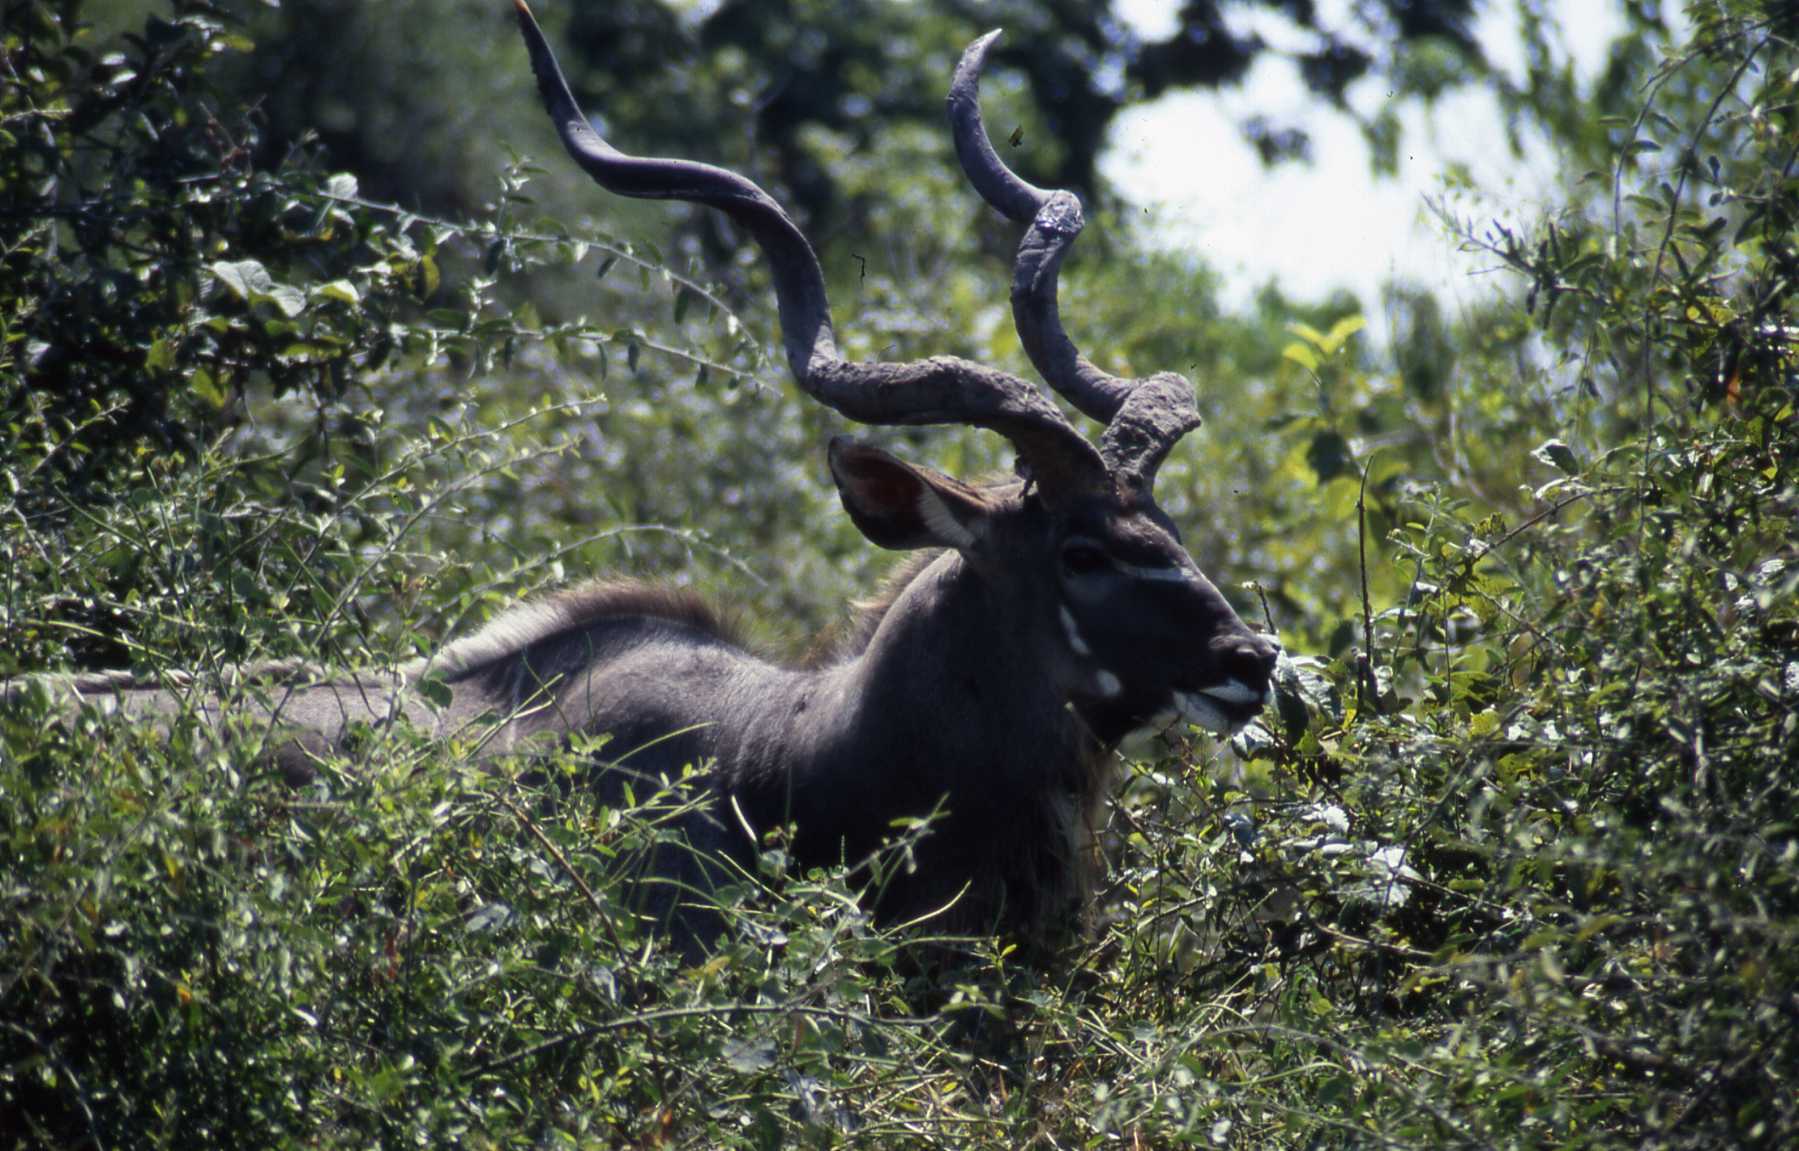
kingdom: Animalia
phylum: Chordata
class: Mammalia
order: Artiodactyla
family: Bovidae
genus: Tragelaphus
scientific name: Tragelaphus strepsiceros
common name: Greater kudu
